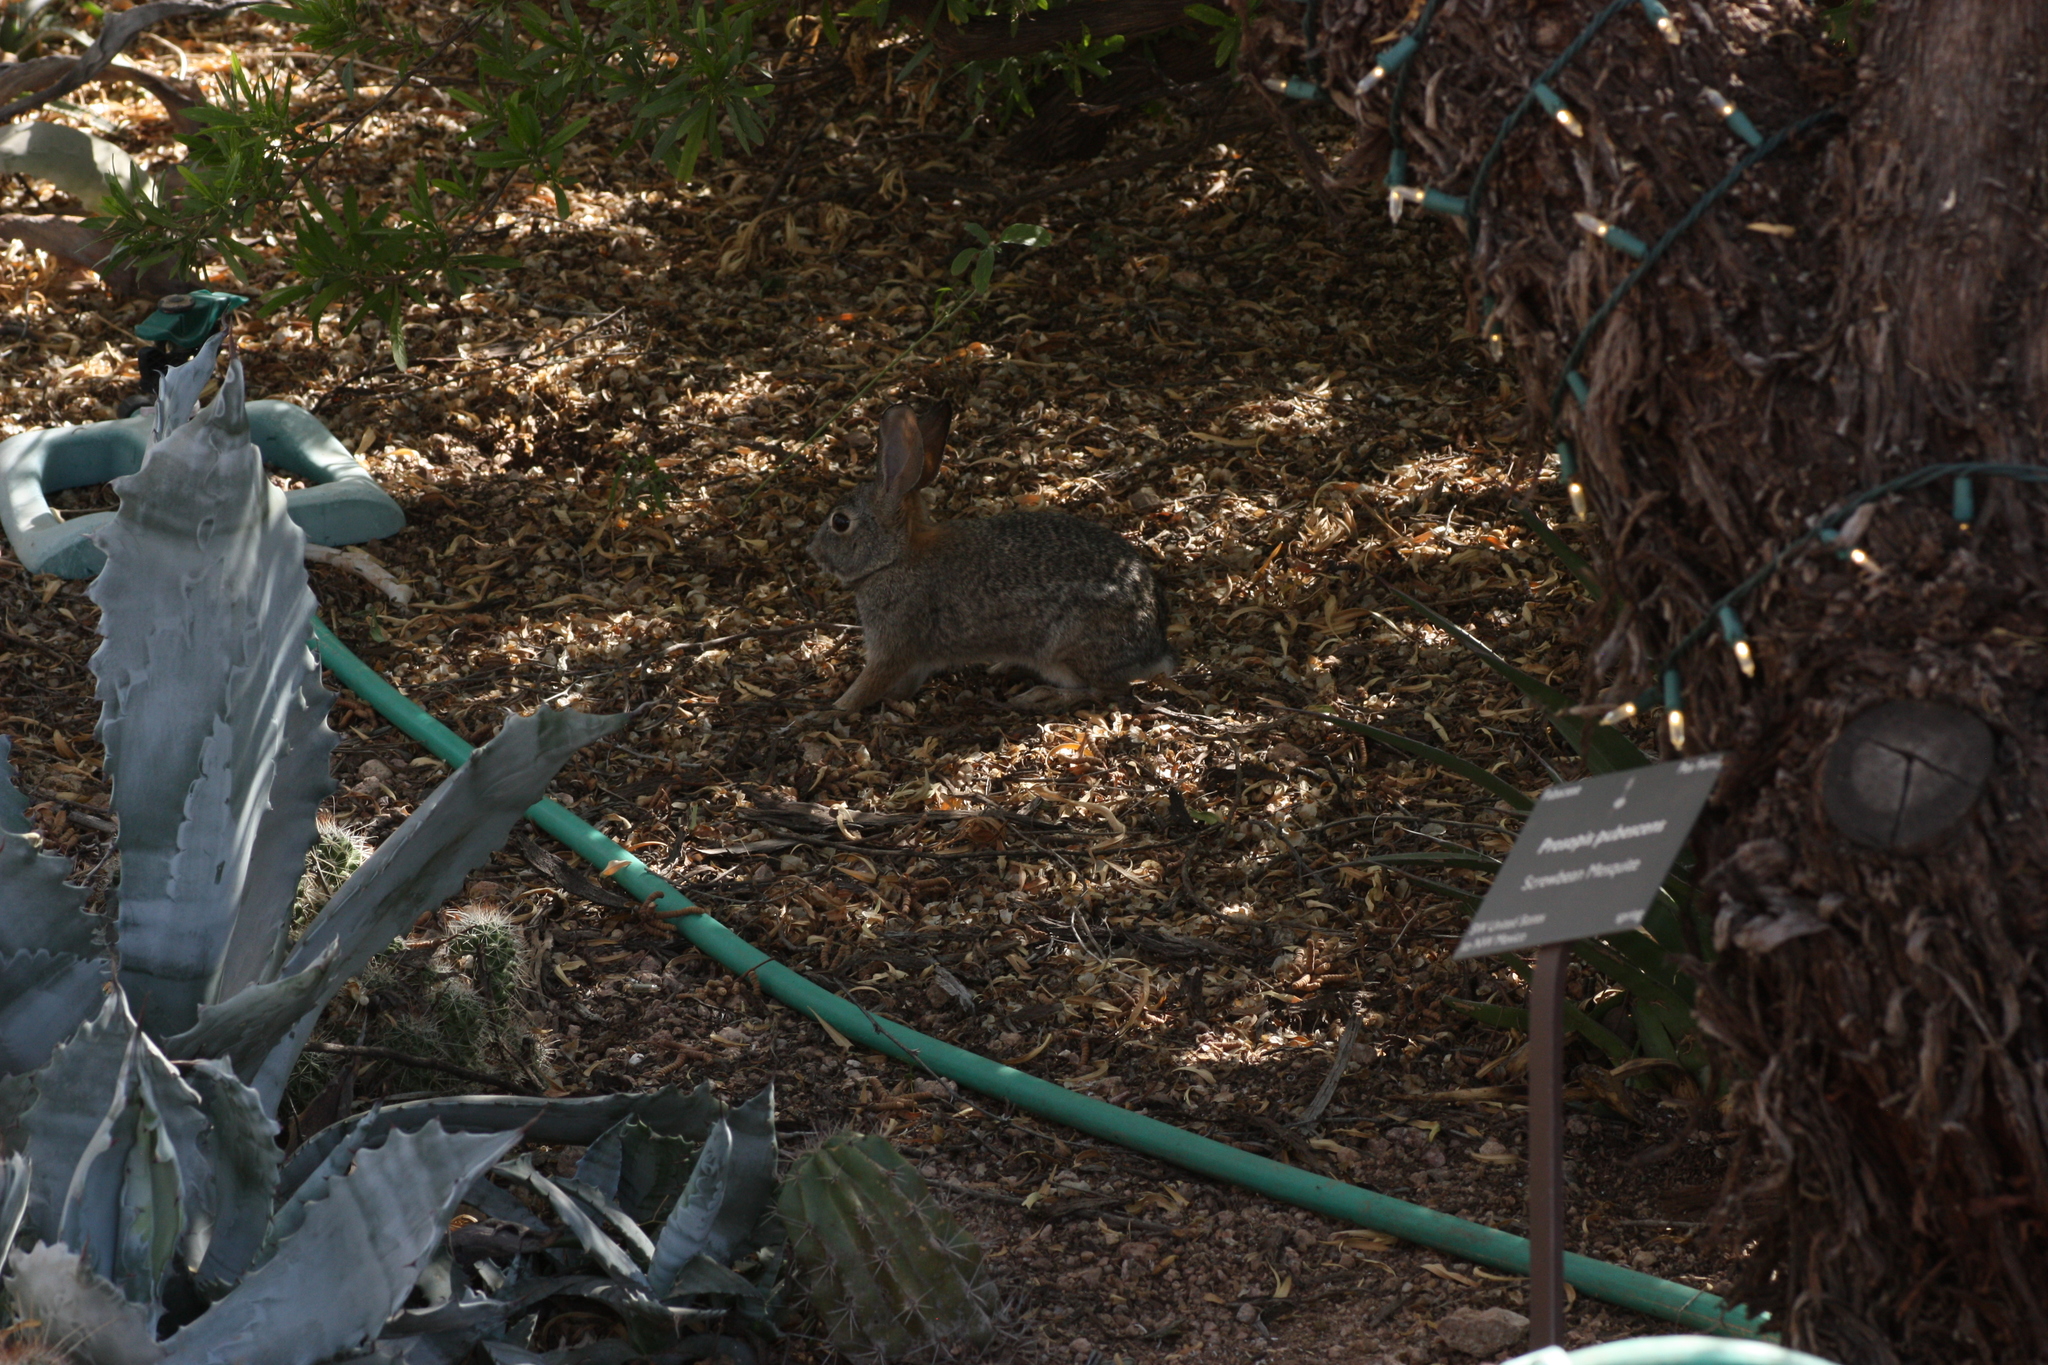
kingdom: Animalia
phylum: Chordata
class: Mammalia
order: Lagomorpha
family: Leporidae
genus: Sylvilagus
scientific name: Sylvilagus audubonii
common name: Desert cottontail
